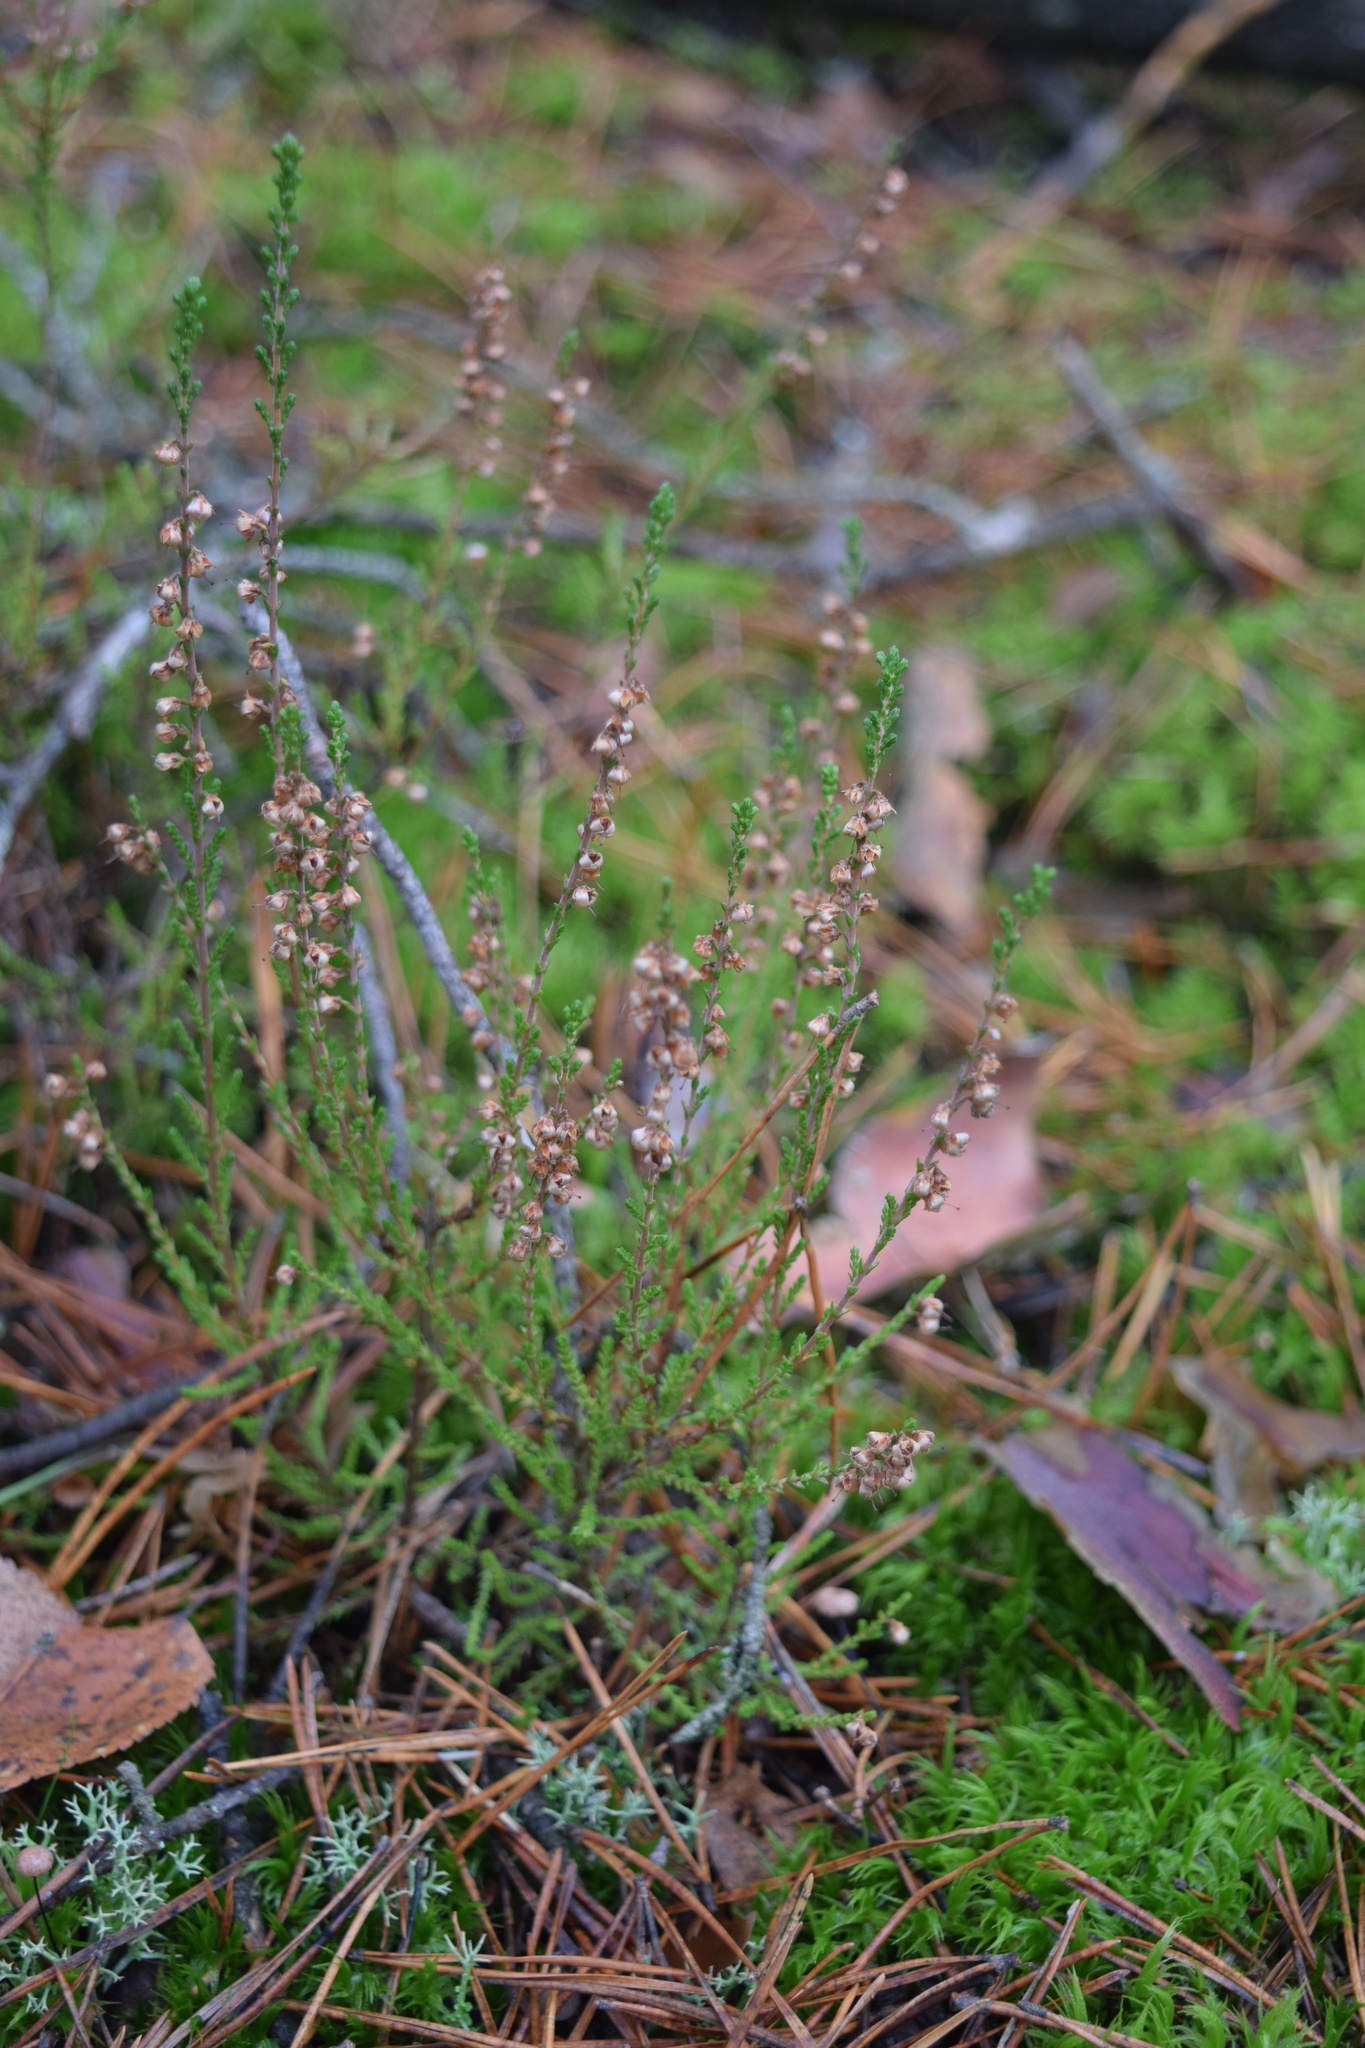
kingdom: Plantae
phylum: Tracheophyta
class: Magnoliopsida
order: Ericales
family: Ericaceae
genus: Calluna
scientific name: Calluna vulgaris
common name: Heather
